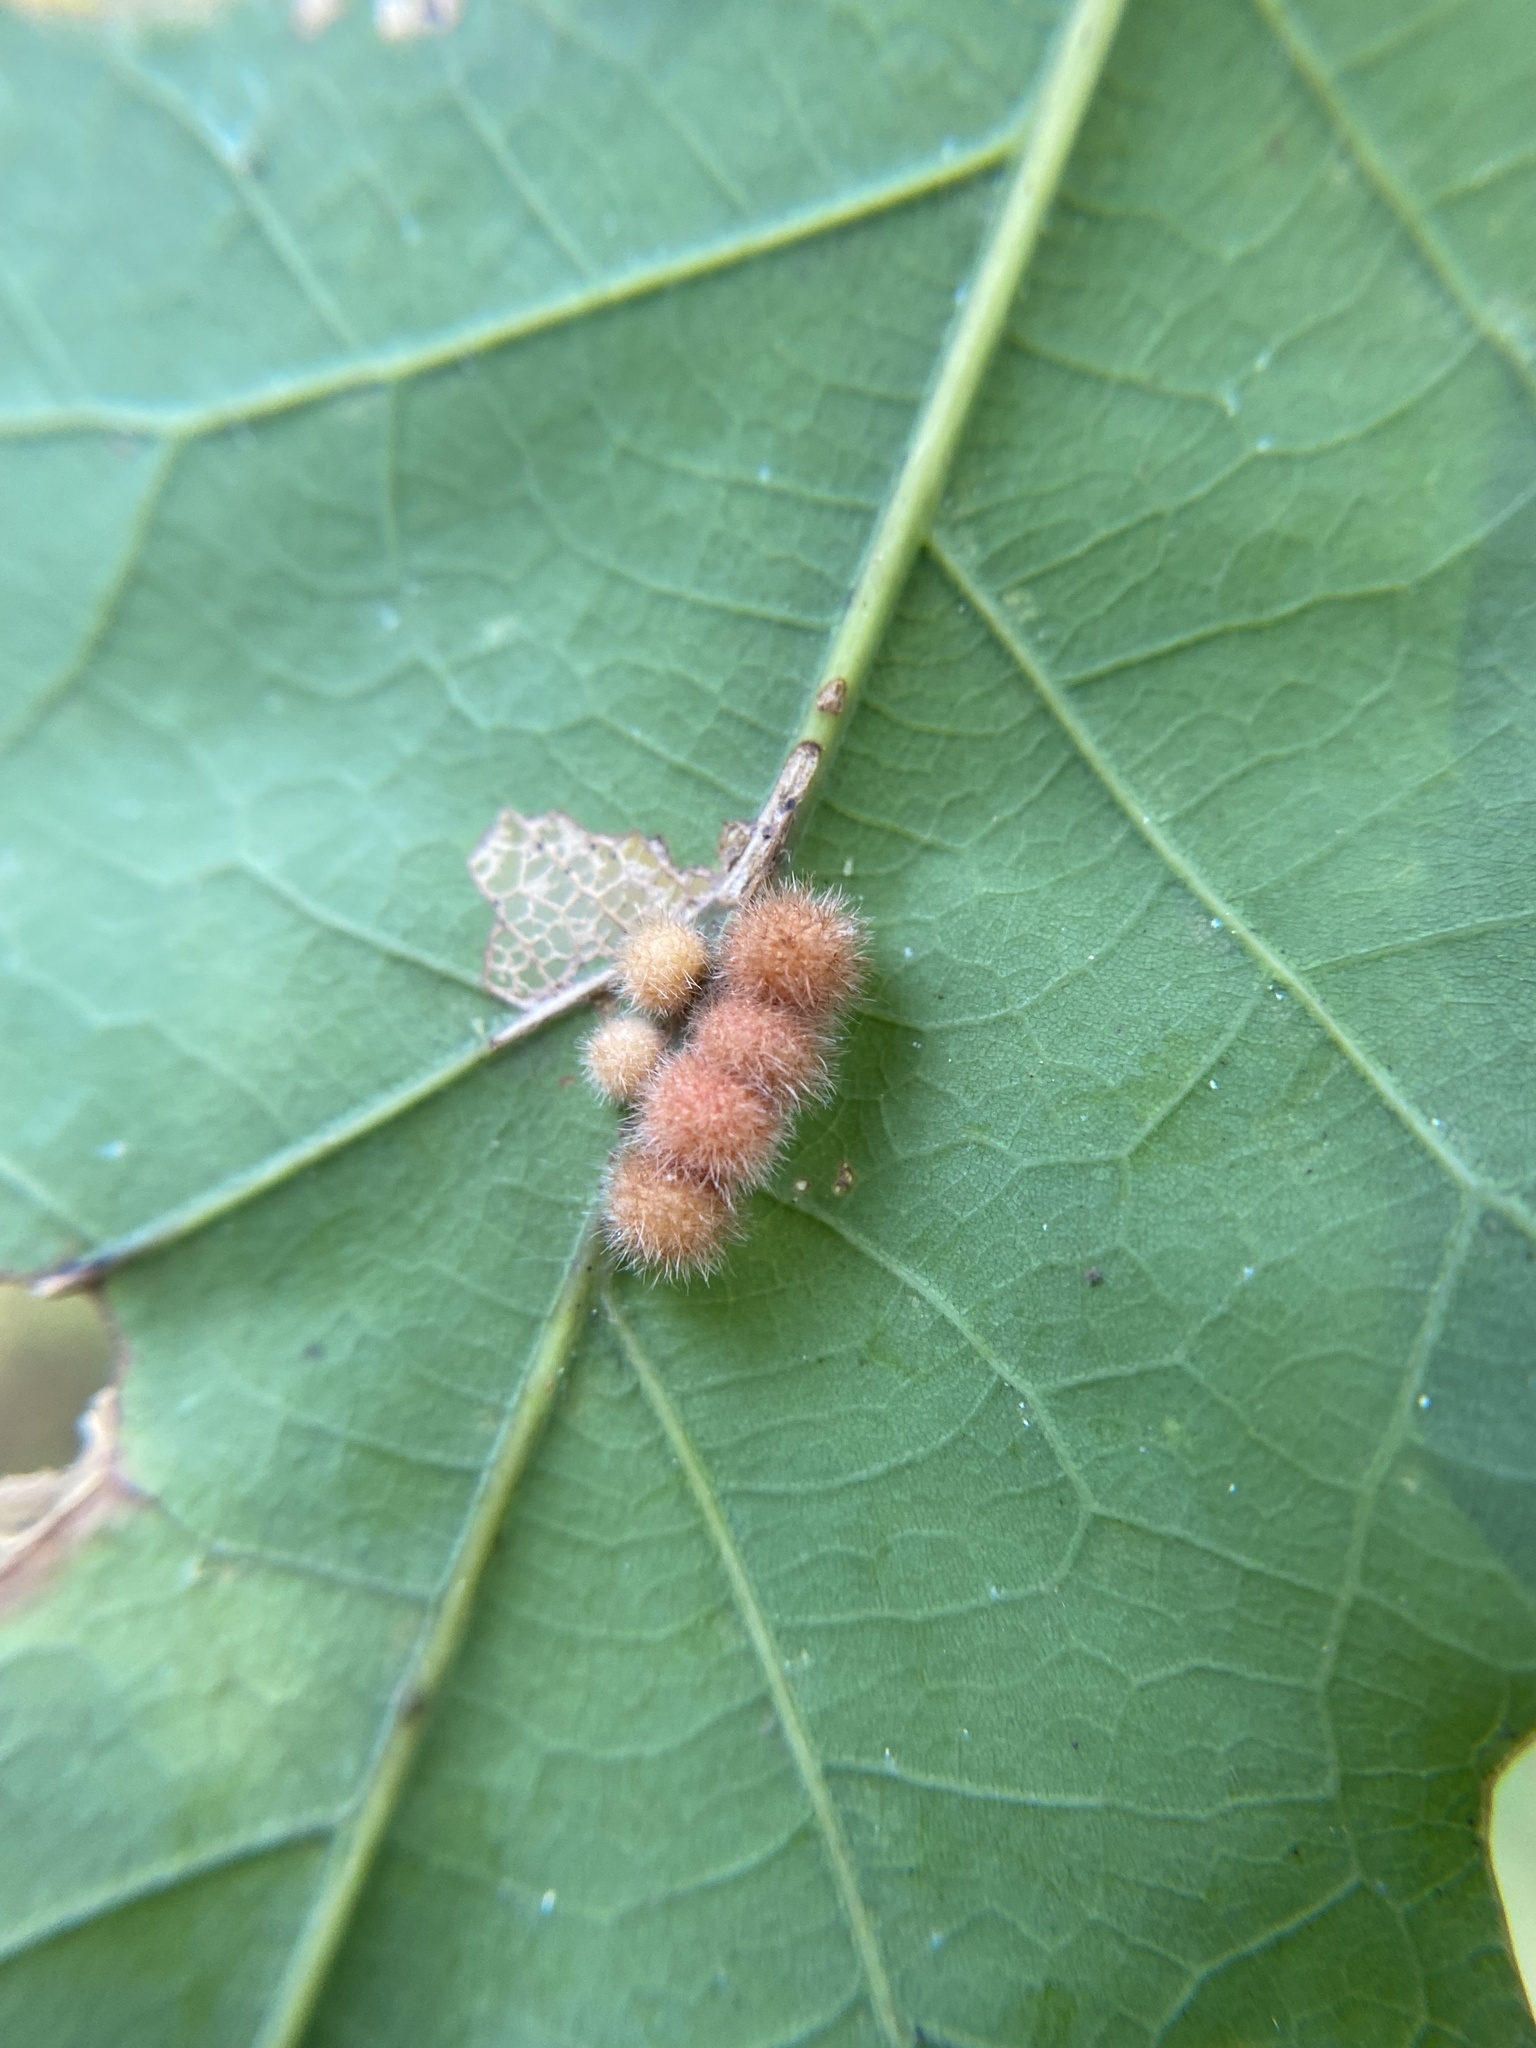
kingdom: Animalia
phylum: Arthropoda
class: Insecta
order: Hymenoptera
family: Cynipidae
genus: Andricus
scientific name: Andricus
